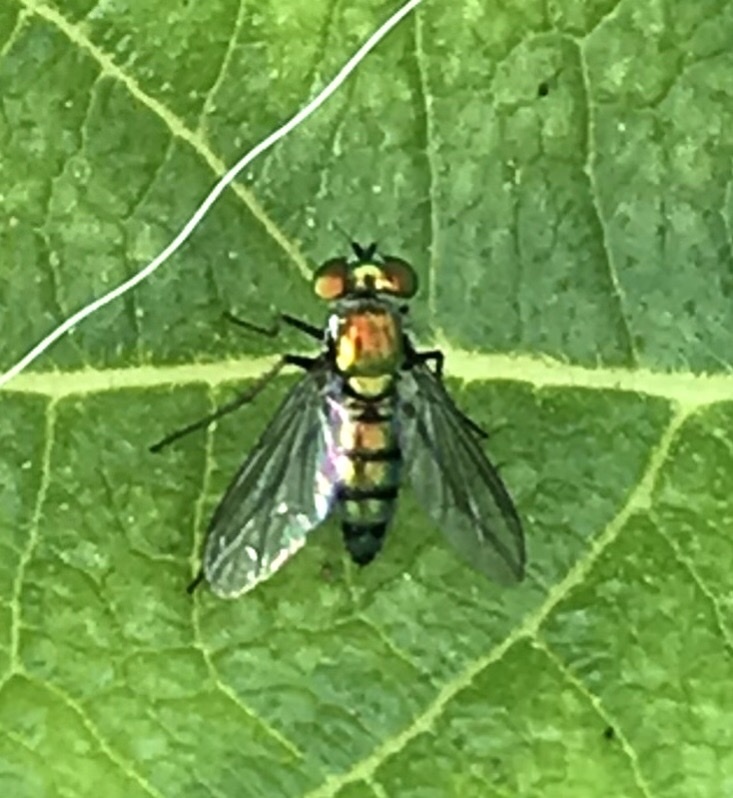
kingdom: Animalia
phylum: Arthropoda
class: Insecta
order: Diptera
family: Dolichopodidae
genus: Condylostylus
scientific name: Condylostylus longicornis
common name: Long-legged fly
